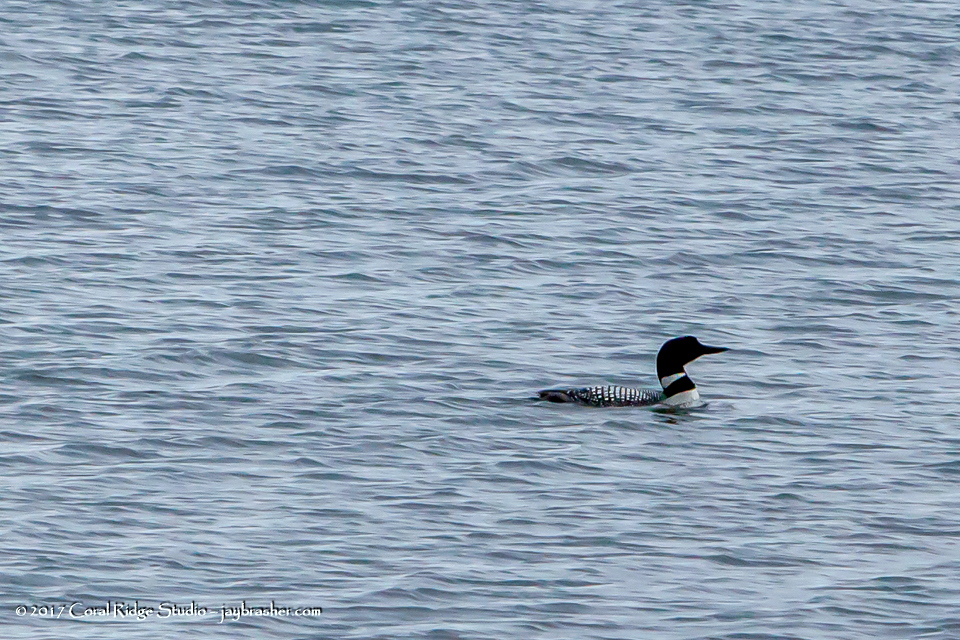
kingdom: Animalia
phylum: Chordata
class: Aves
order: Gaviiformes
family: Gaviidae
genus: Gavia
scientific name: Gavia immer
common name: Common loon
